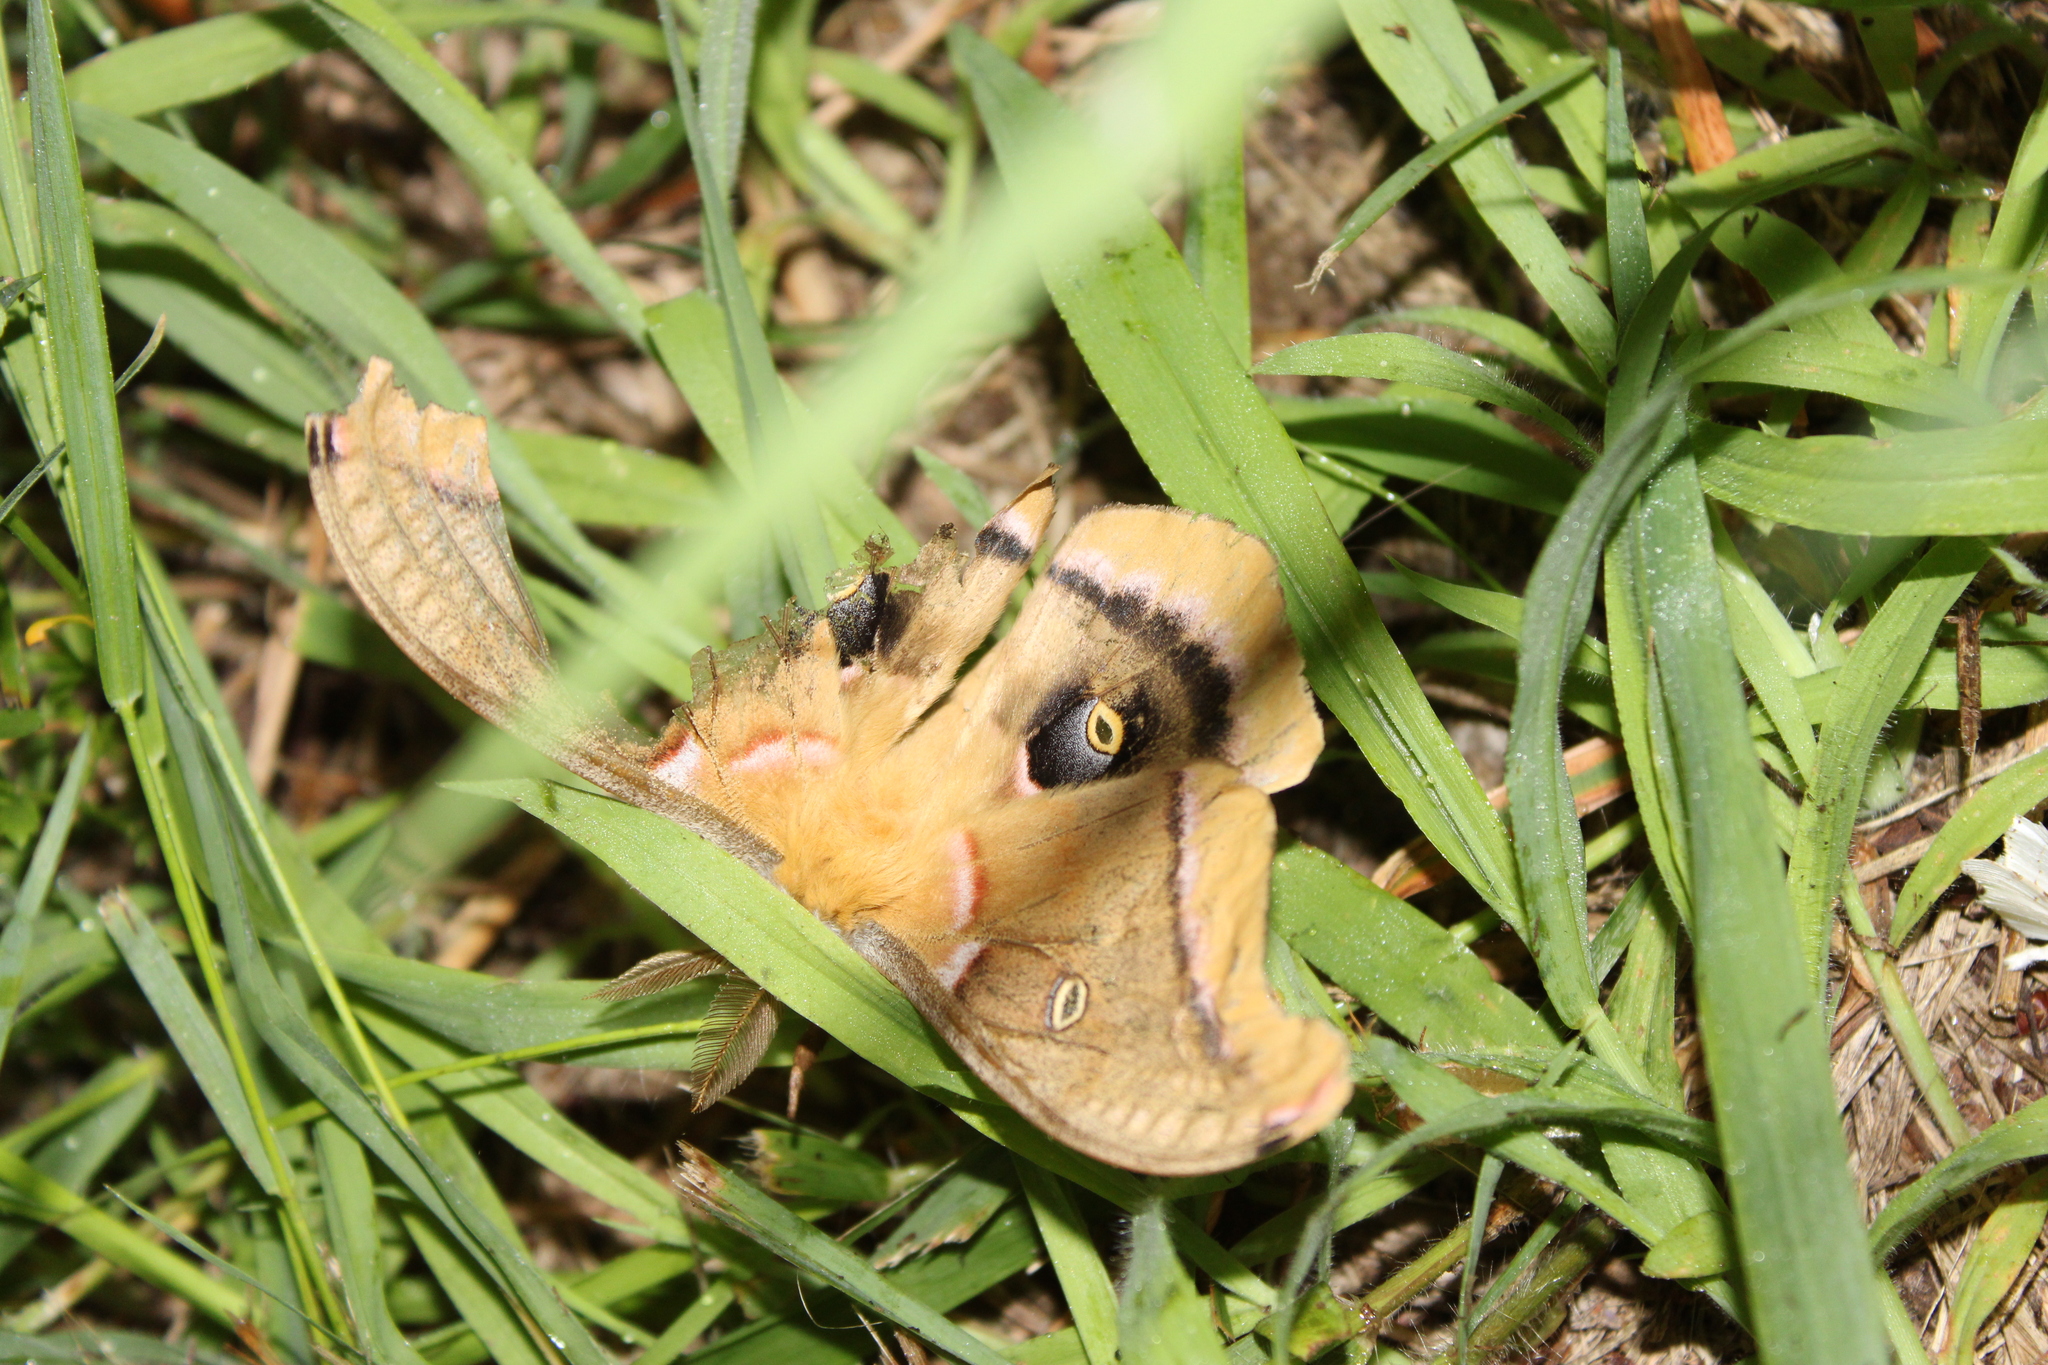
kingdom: Animalia
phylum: Arthropoda
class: Insecta
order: Lepidoptera
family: Saturniidae
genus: Antheraea
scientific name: Antheraea polyphemus
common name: Polyphemus moth
